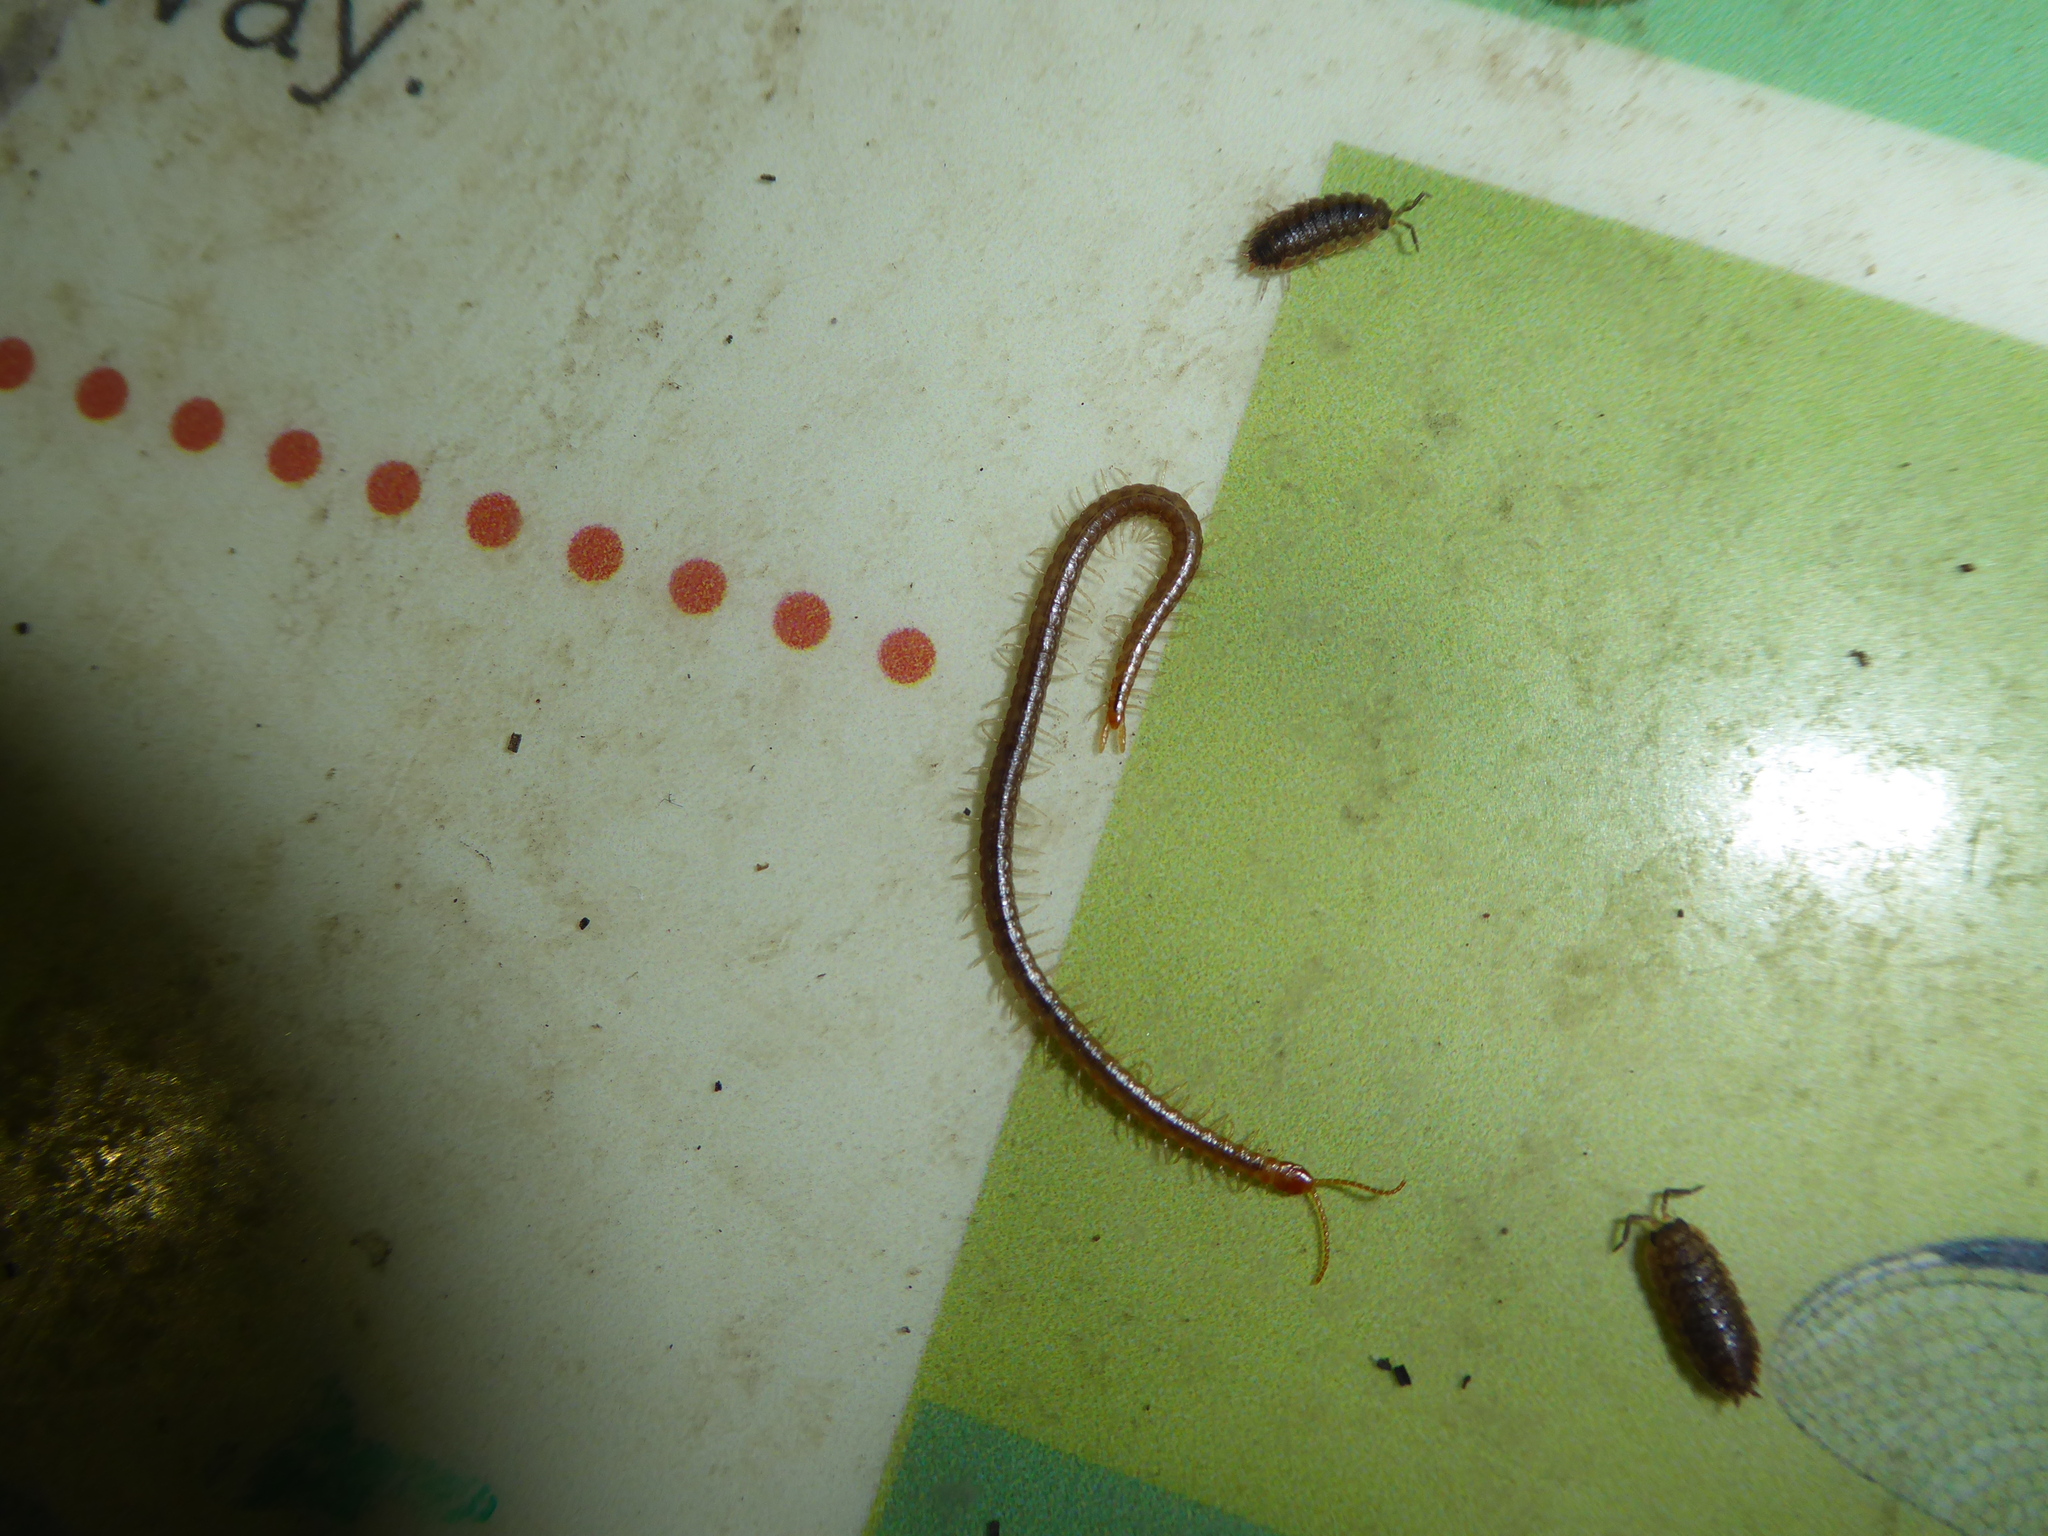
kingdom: Animalia
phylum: Arthropoda
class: Chilopoda
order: Geophilomorpha
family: Geophilidae
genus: Geophilus
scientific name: Geophilus carpophagus
